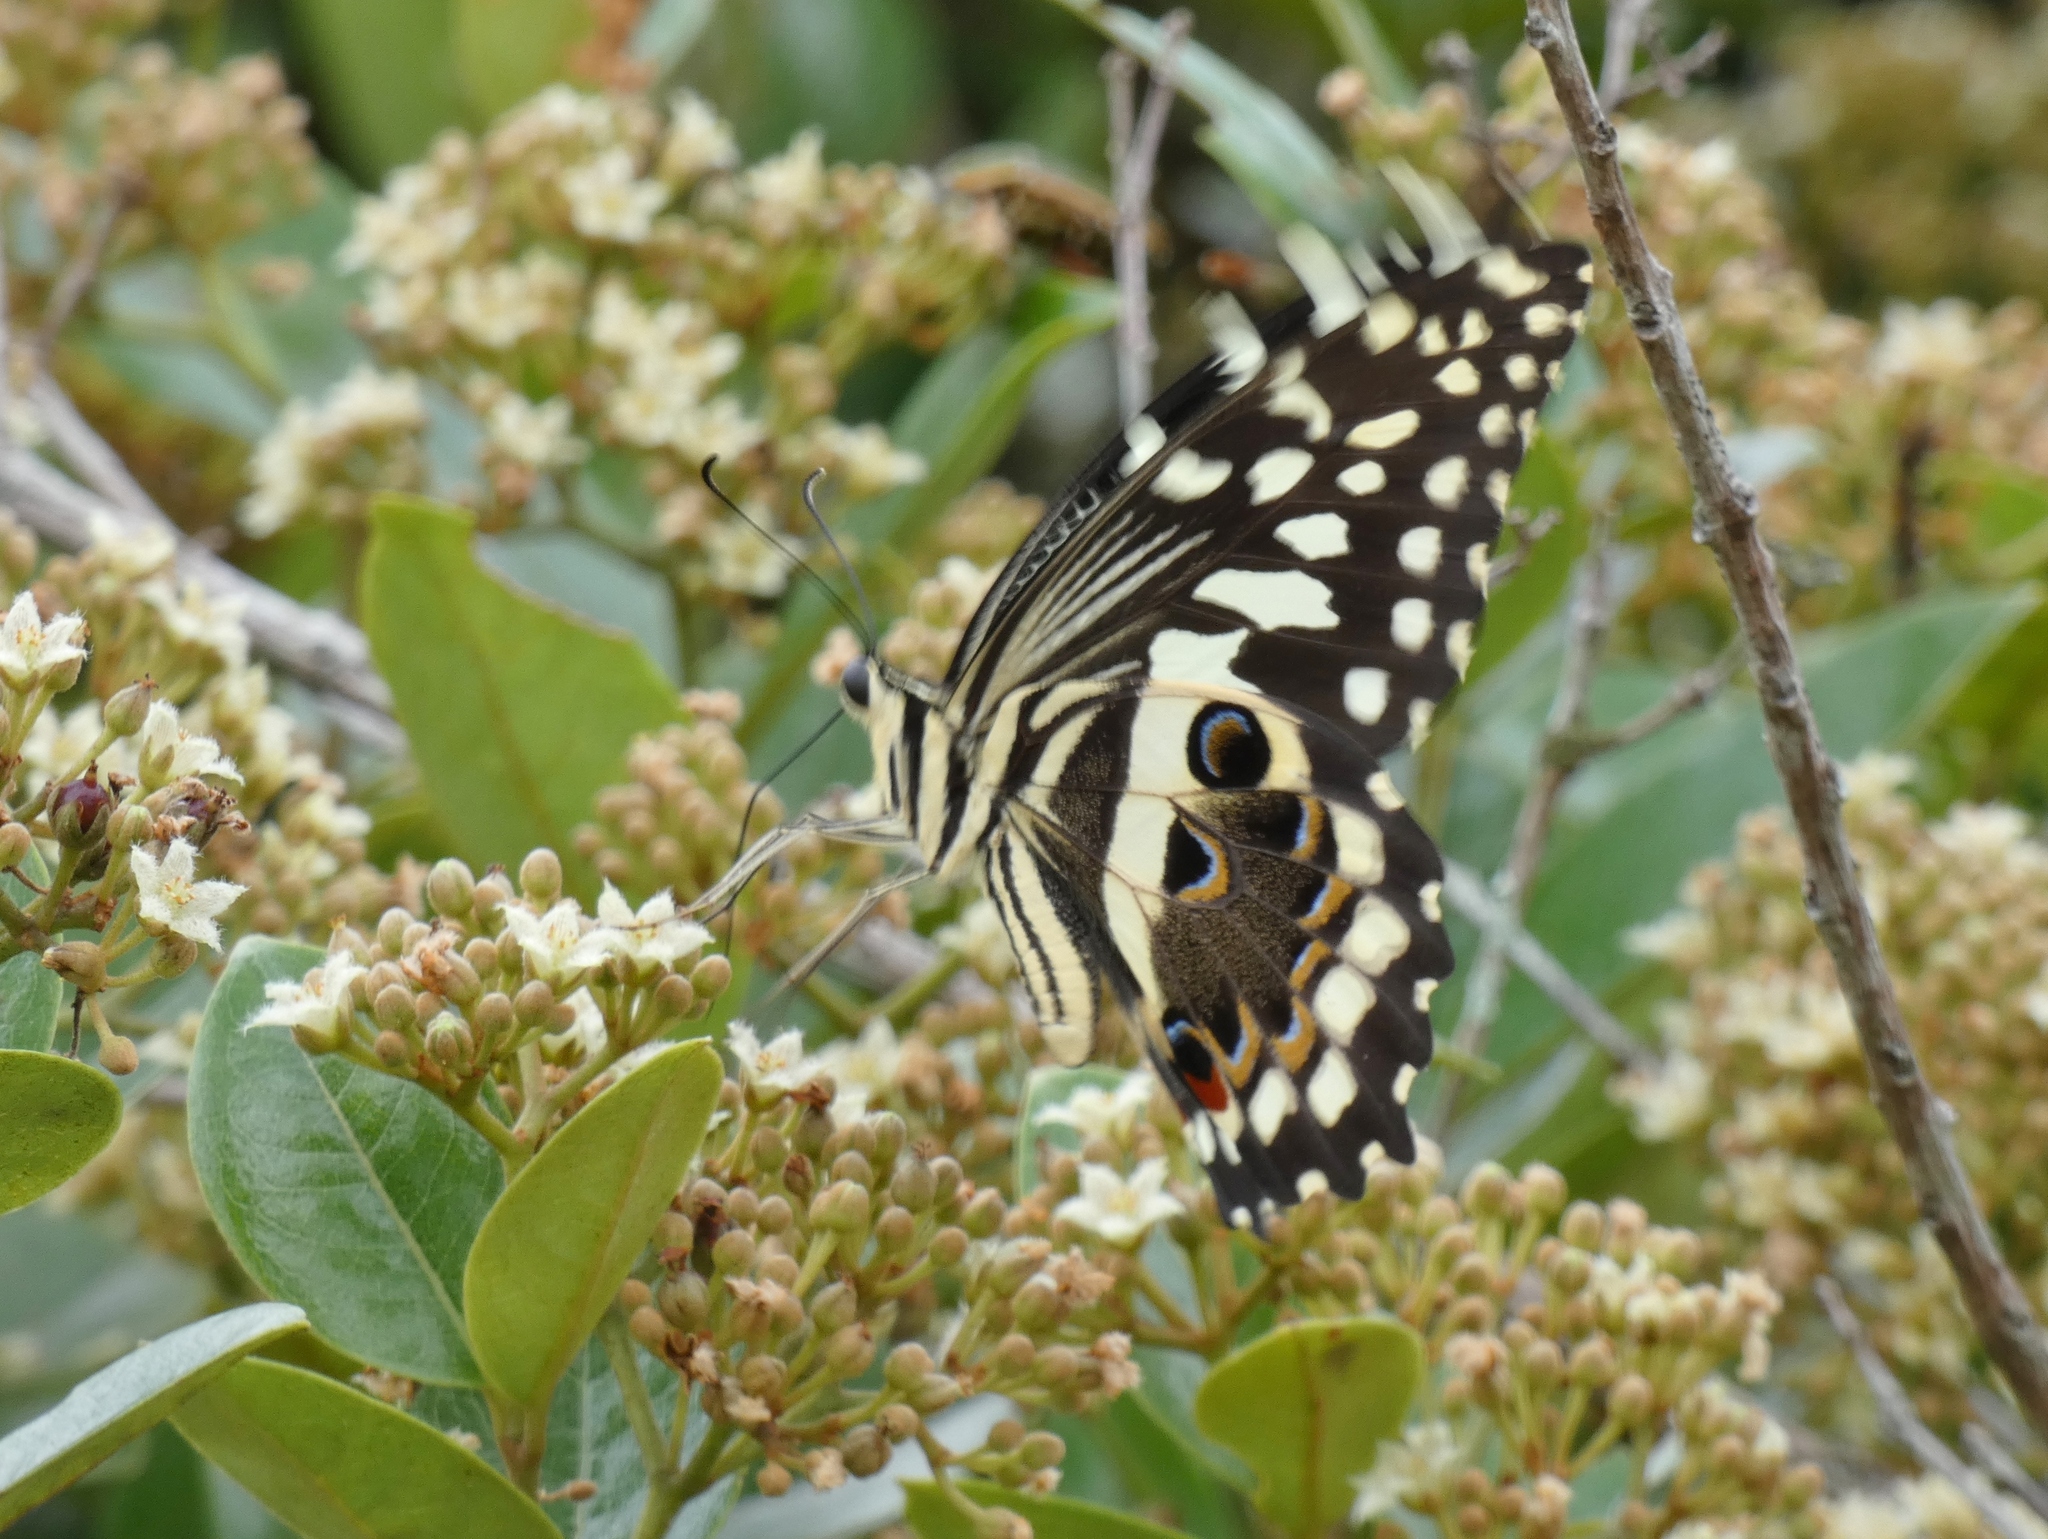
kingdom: Animalia
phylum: Arthropoda
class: Insecta
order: Lepidoptera
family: Papilionidae
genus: Papilio
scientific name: Papilio demodocus
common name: Christmas butterfly
